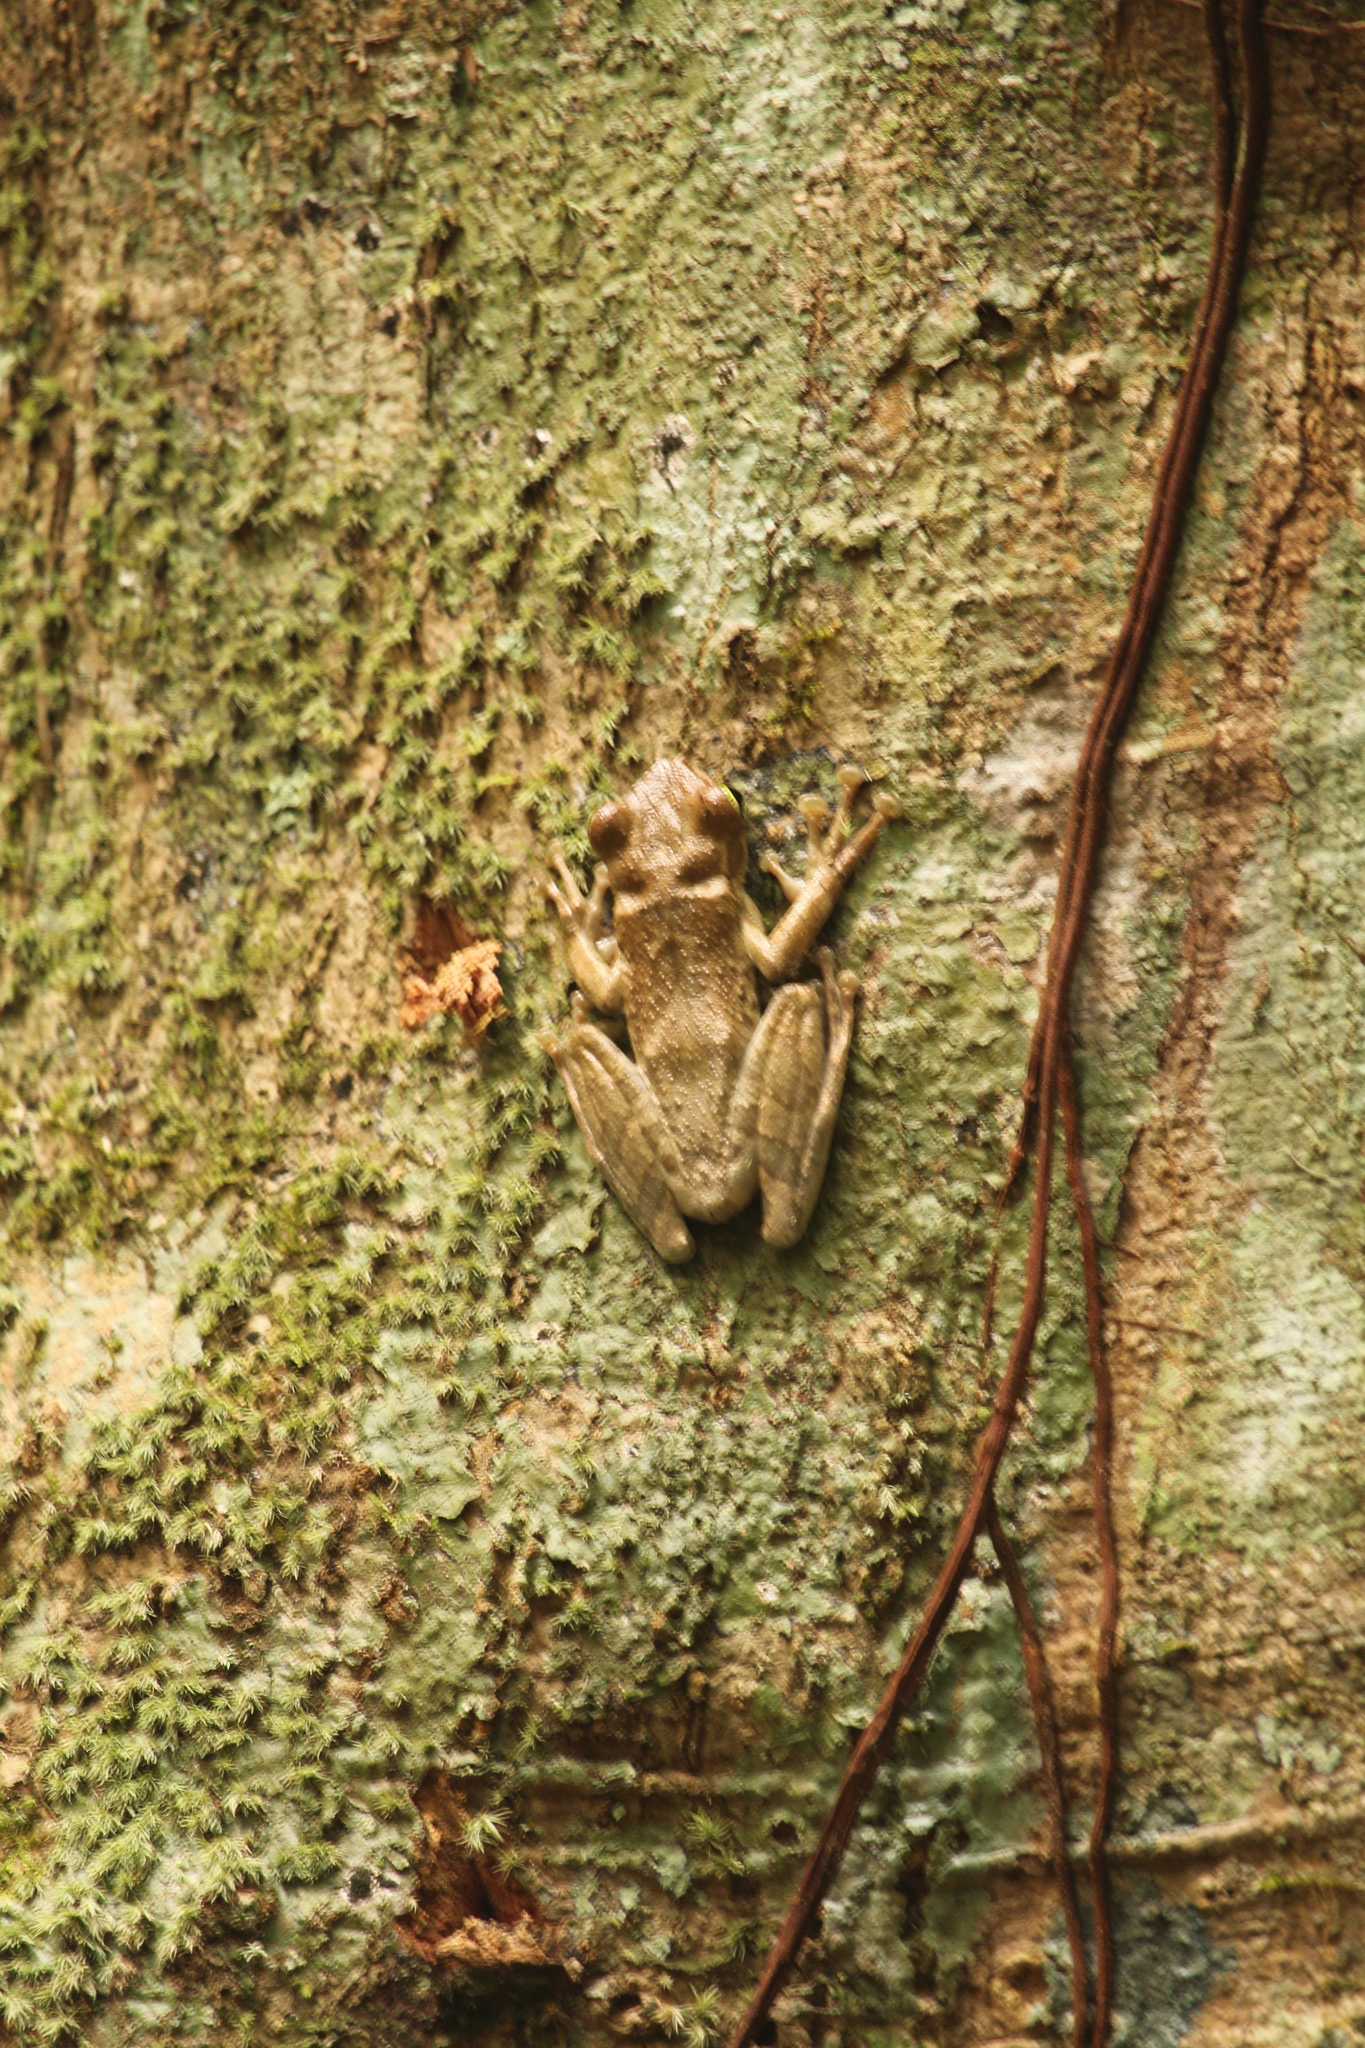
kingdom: Animalia
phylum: Chordata
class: Amphibia
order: Anura
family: Hylidae
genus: Osteocephalus
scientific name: Osteocephalus taurinus
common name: Manaus slender-legged treefrog
